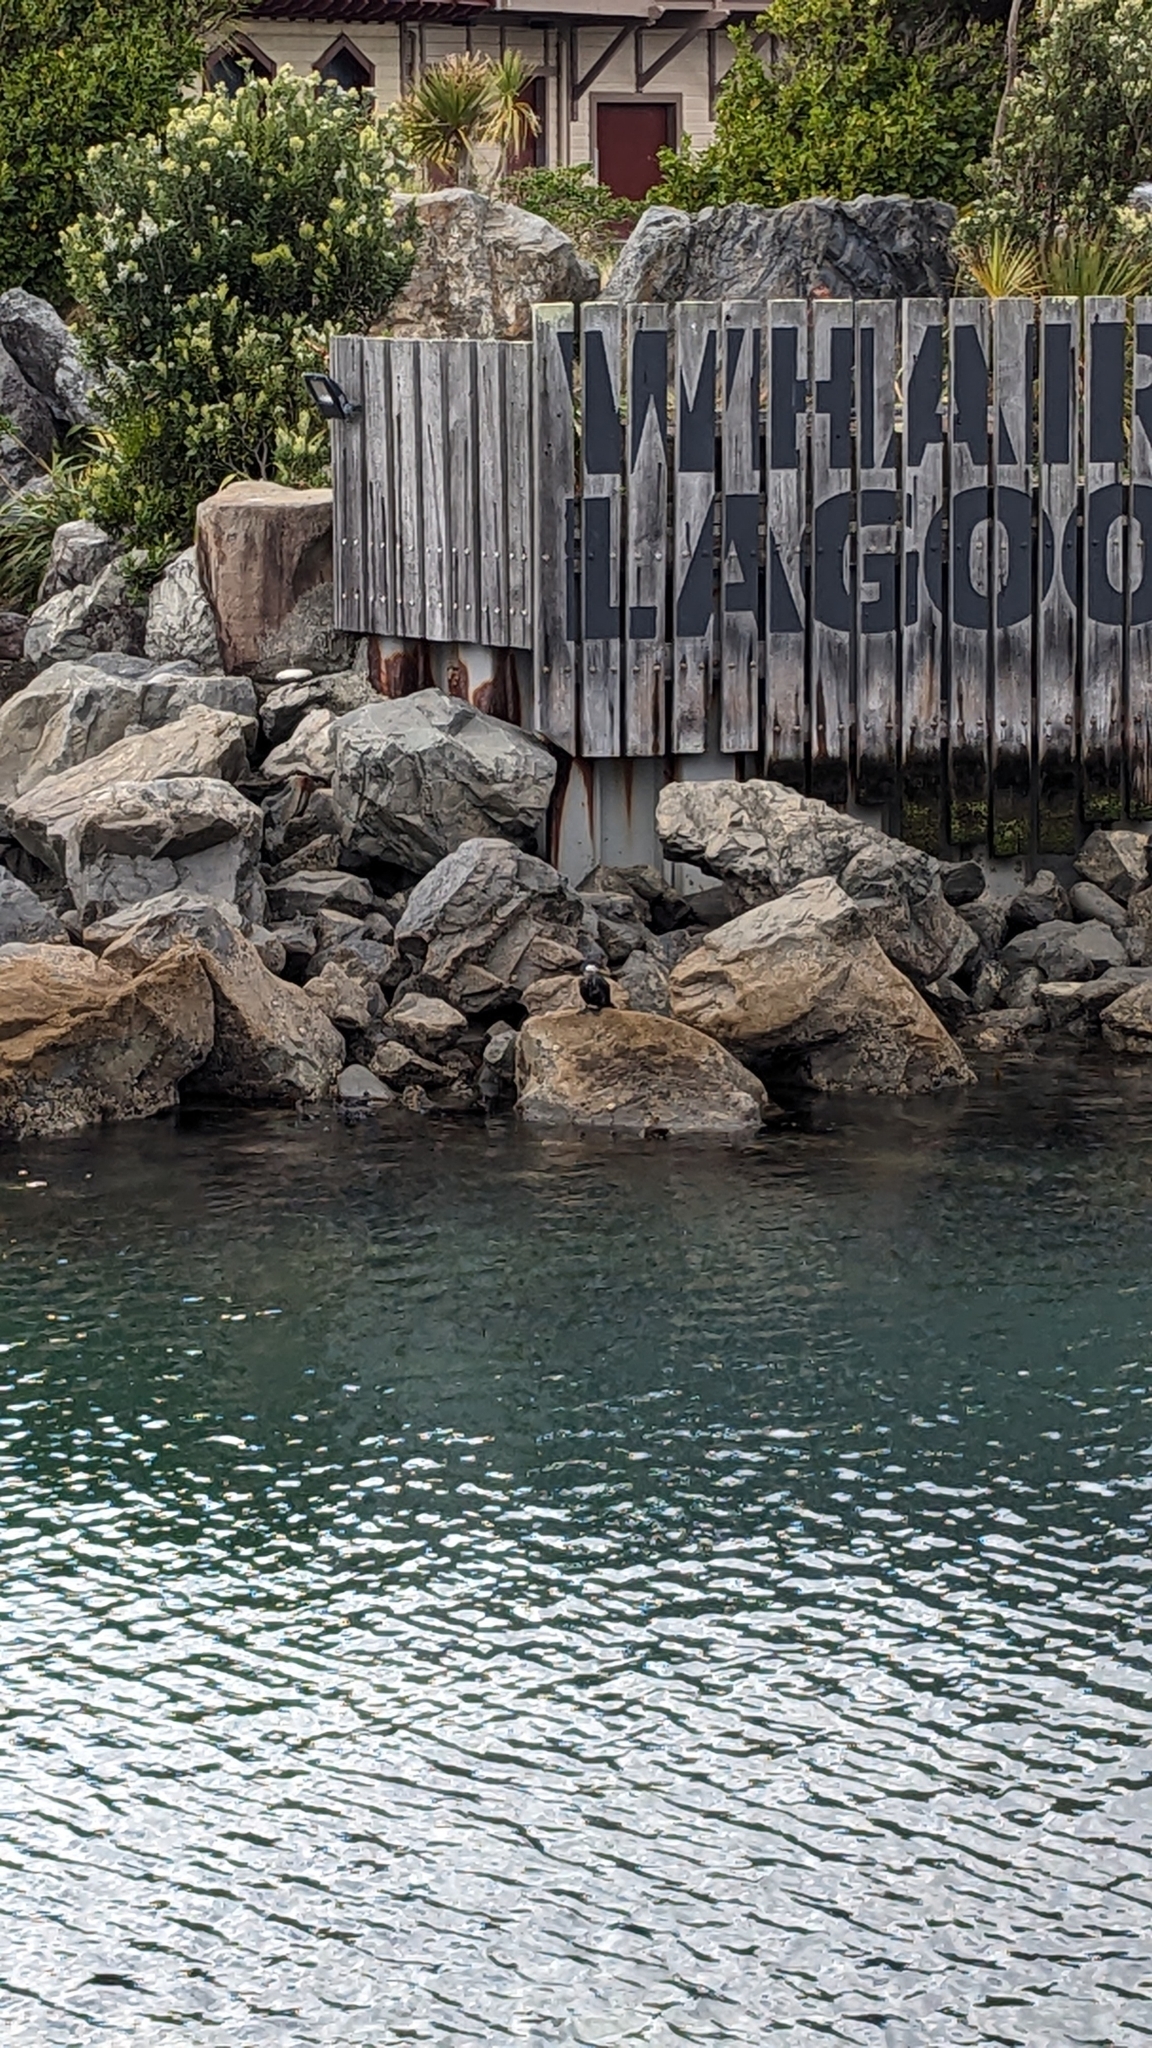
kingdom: Animalia
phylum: Chordata
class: Aves
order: Suliformes
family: Phalacrocoracidae
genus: Microcarbo
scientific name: Microcarbo melanoleucos
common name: Little pied cormorant
